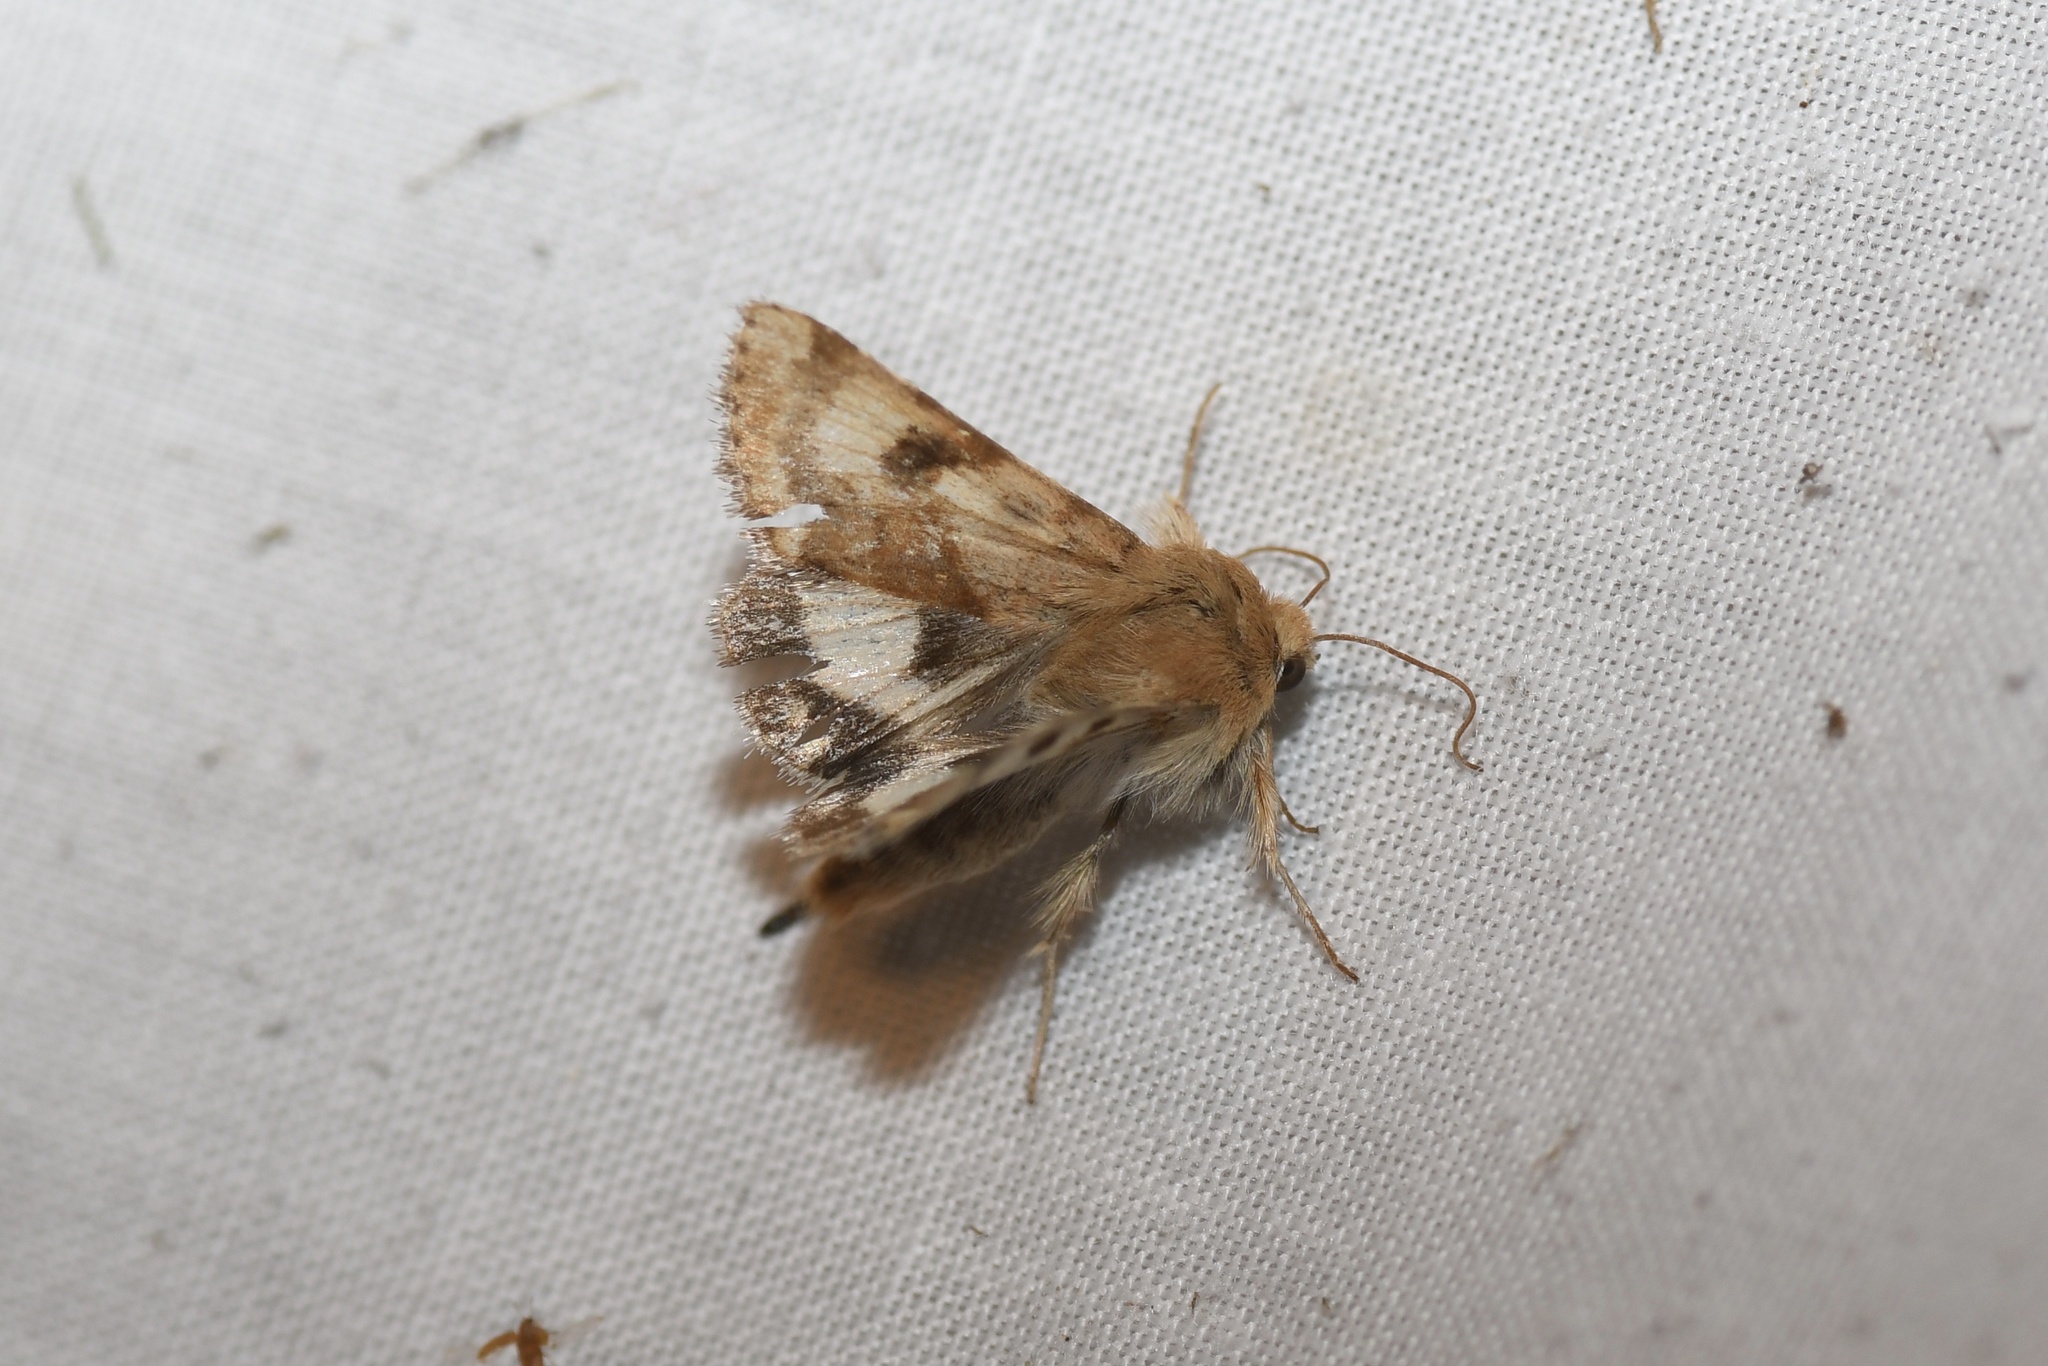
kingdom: Animalia
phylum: Arthropoda
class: Insecta
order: Lepidoptera
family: Noctuidae
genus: Heliothis
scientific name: Heliothis phloxiphaga
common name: Darker spotted straw moth
